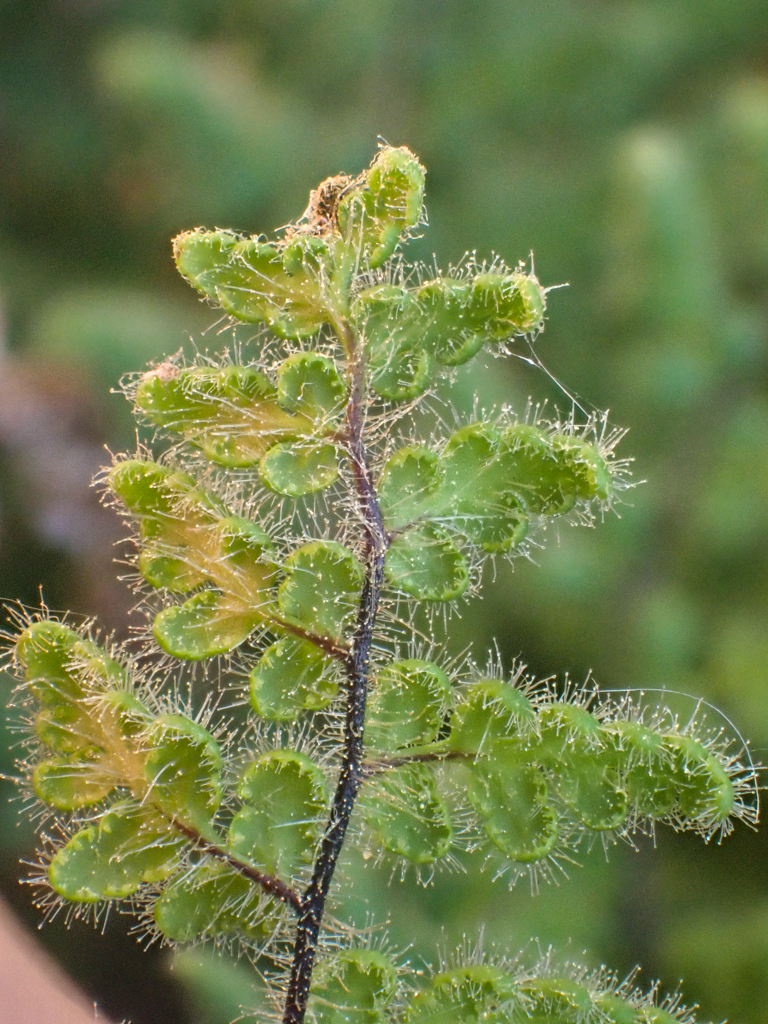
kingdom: Plantae
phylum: Tracheophyta
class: Polypodiopsida
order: Polypodiales
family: Pteridaceae
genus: Myriopteris
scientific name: Myriopteris cooperae
